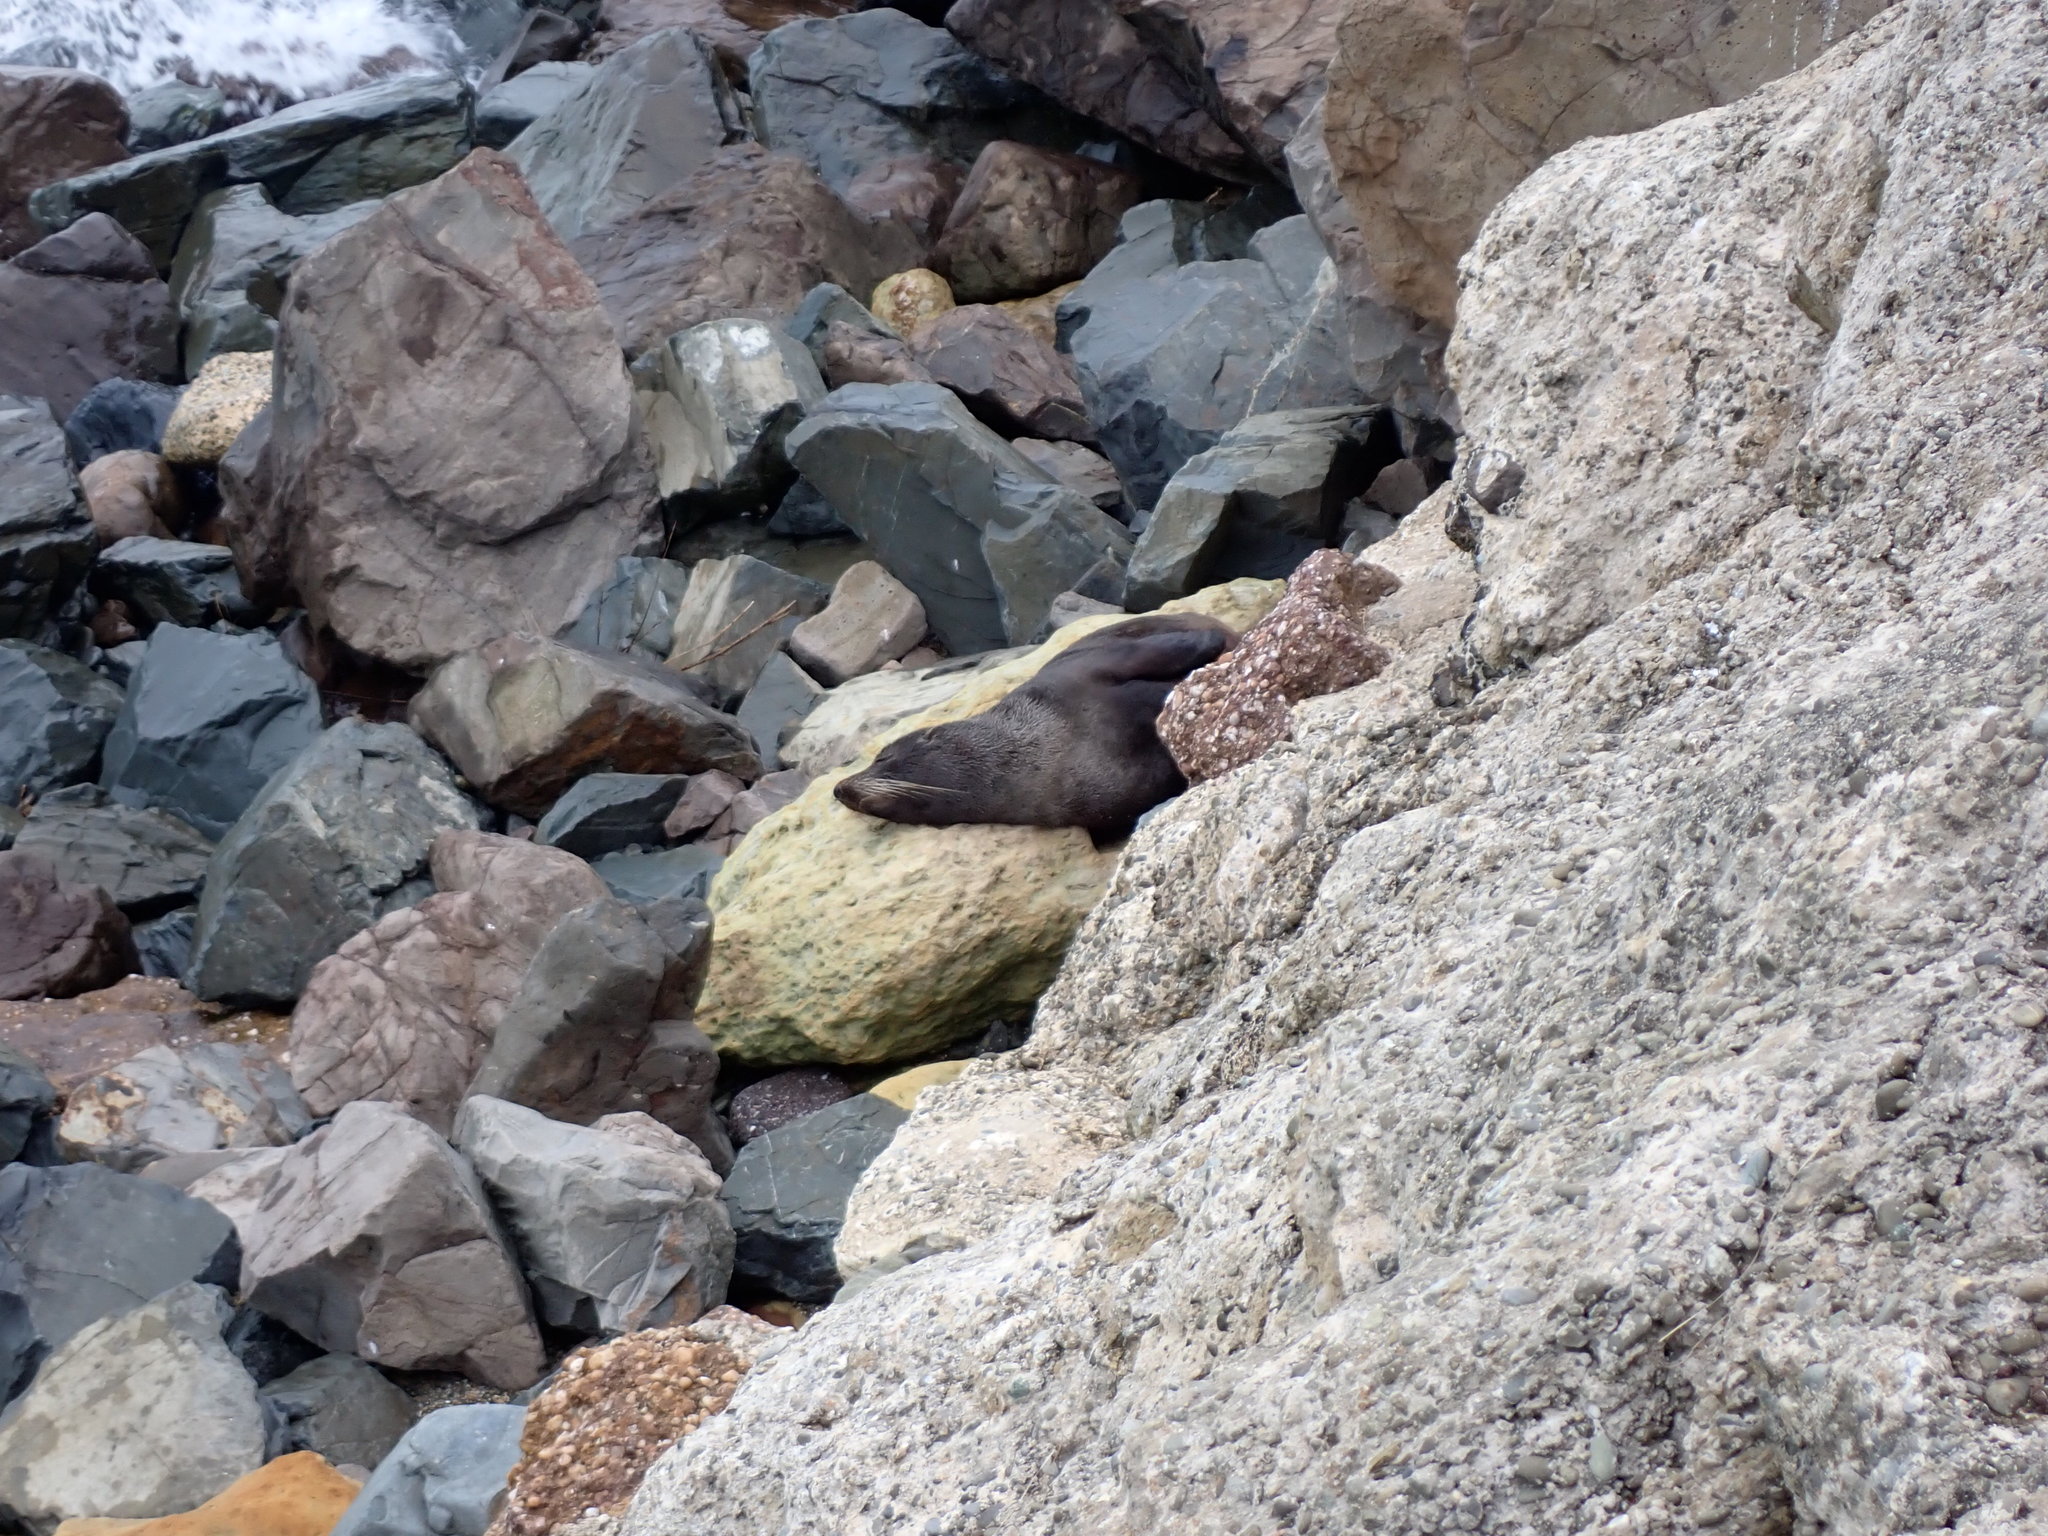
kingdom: Animalia
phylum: Chordata
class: Mammalia
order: Carnivora
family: Otariidae
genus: Arctocephalus
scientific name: Arctocephalus forsteri
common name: New zealand fur seal
